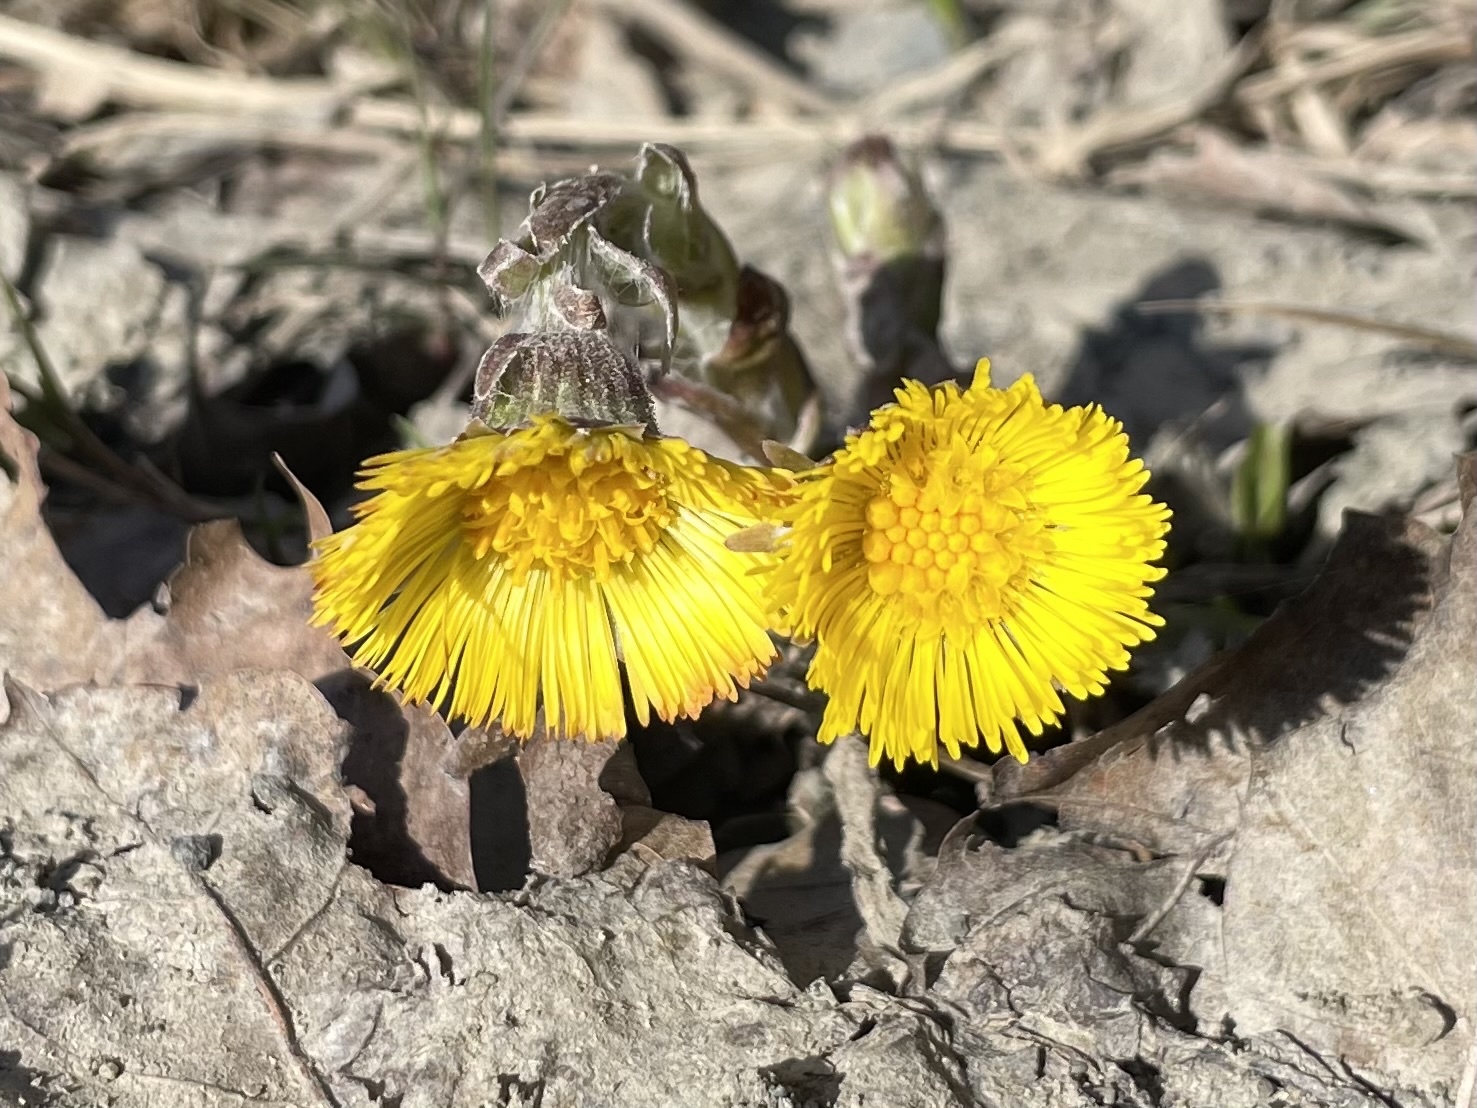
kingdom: Plantae
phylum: Tracheophyta
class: Magnoliopsida
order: Asterales
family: Asteraceae
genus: Tussilago
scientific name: Tussilago farfara
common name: Coltsfoot
